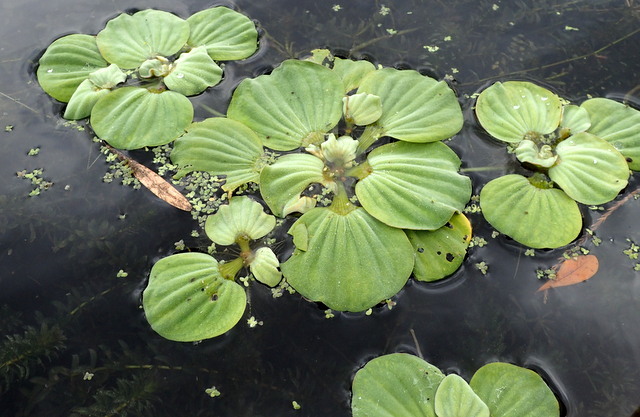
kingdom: Plantae
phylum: Tracheophyta
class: Liliopsida
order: Alismatales
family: Araceae
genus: Pistia
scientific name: Pistia stratiotes
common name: Water lettuce
